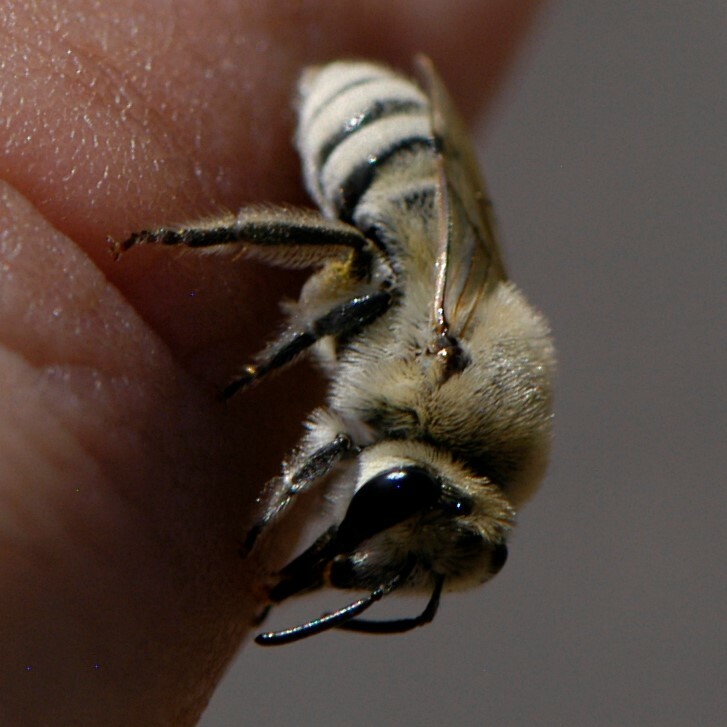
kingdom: Animalia
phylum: Arthropoda
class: Insecta
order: Hymenoptera
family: Colletidae
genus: Colletes
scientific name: Colletes
